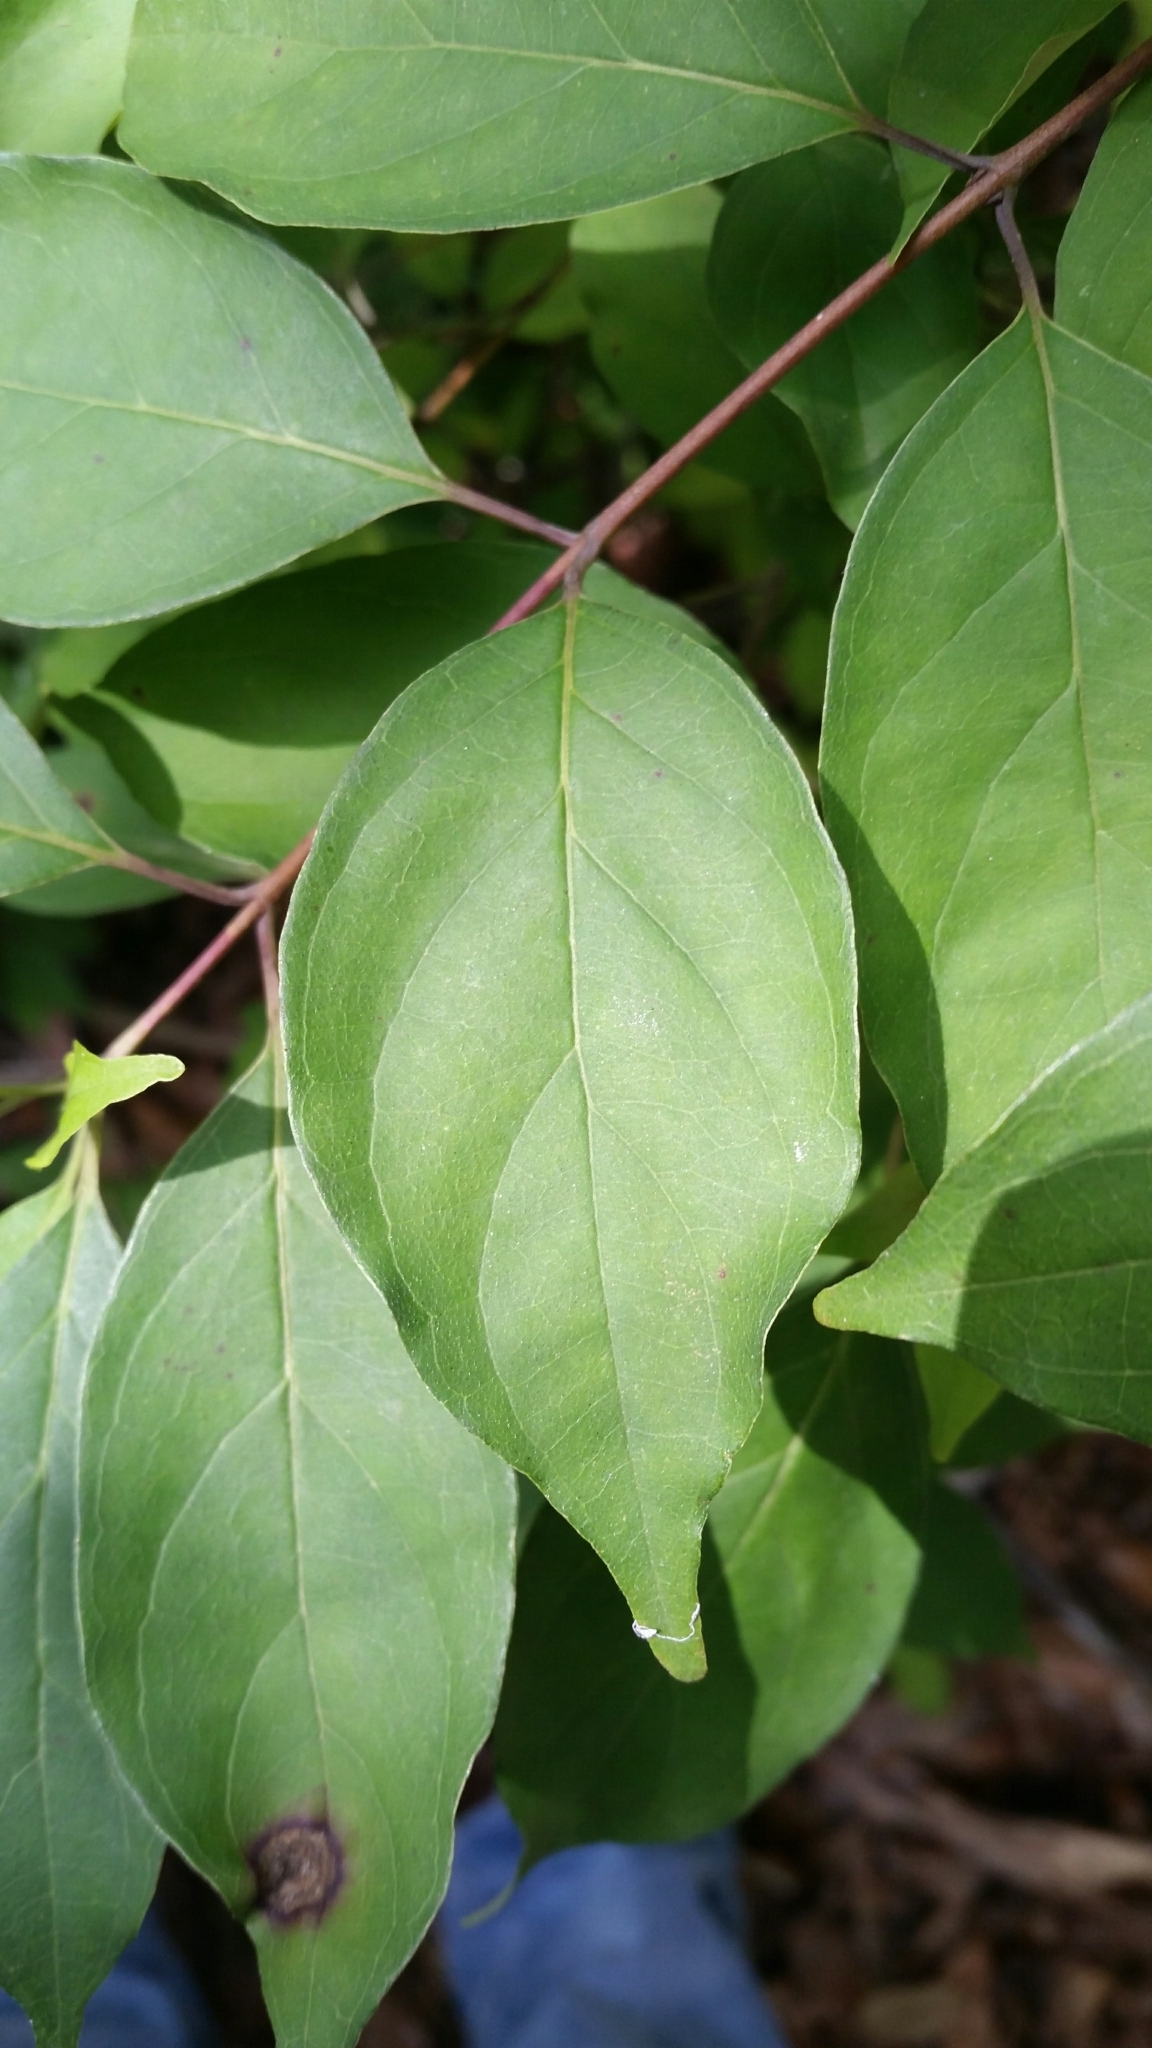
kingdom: Plantae
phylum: Tracheophyta
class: Magnoliopsida
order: Cornales
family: Cornaceae
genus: Cornus
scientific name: Cornus foemina
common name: Swamp dogwood
